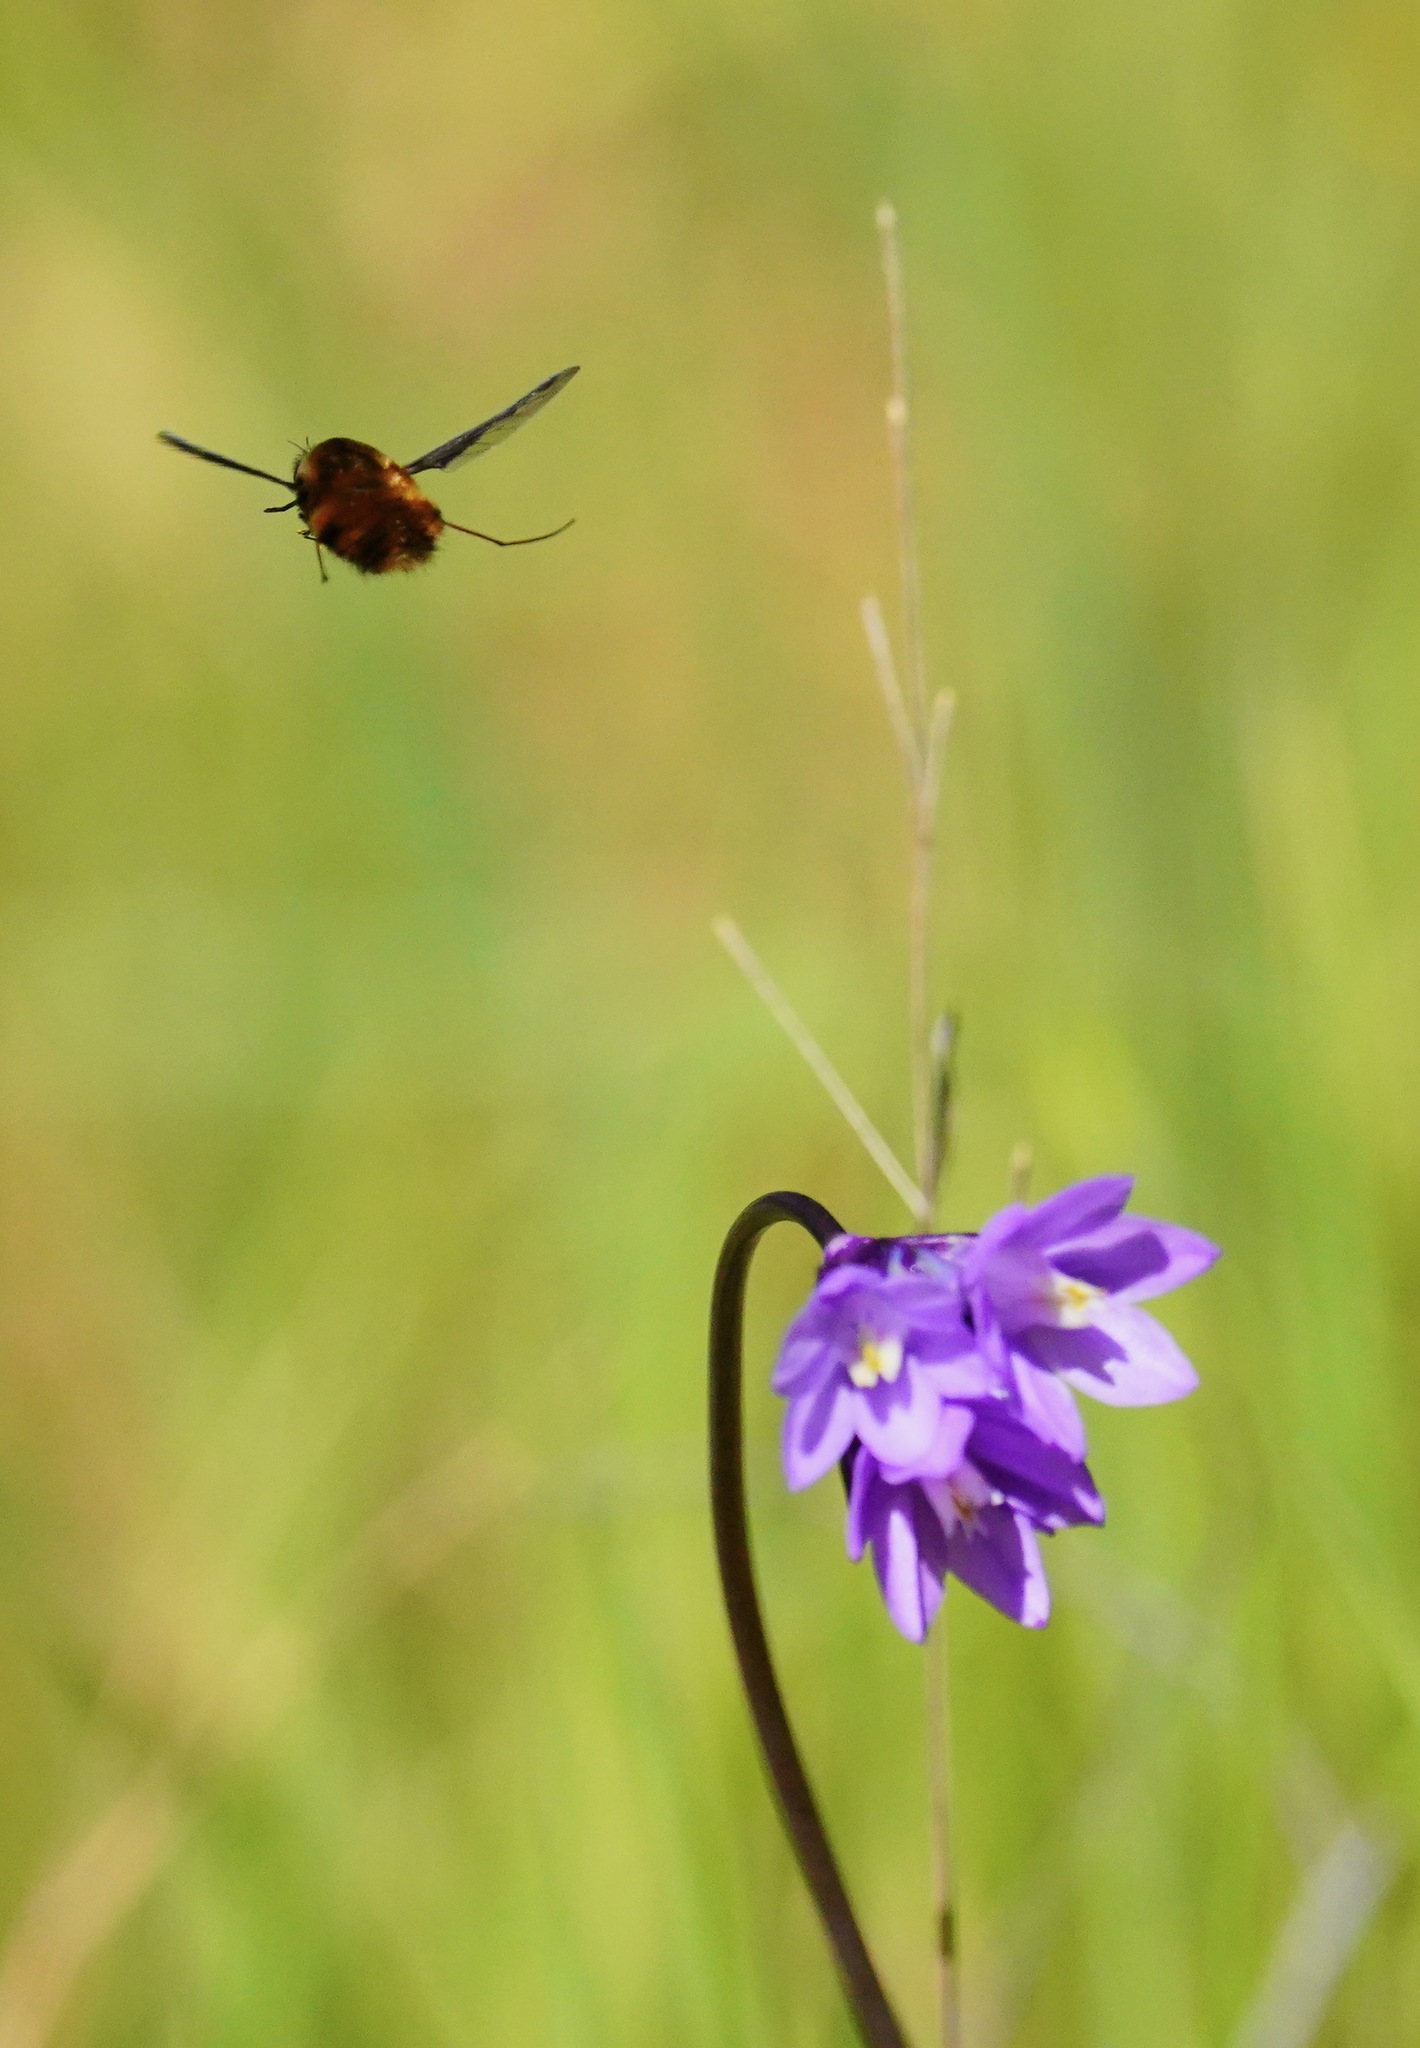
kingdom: Animalia
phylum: Arthropoda
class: Insecta
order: Diptera
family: Bombyliidae
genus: Bombylius
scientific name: Bombylius major
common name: Bee fly
